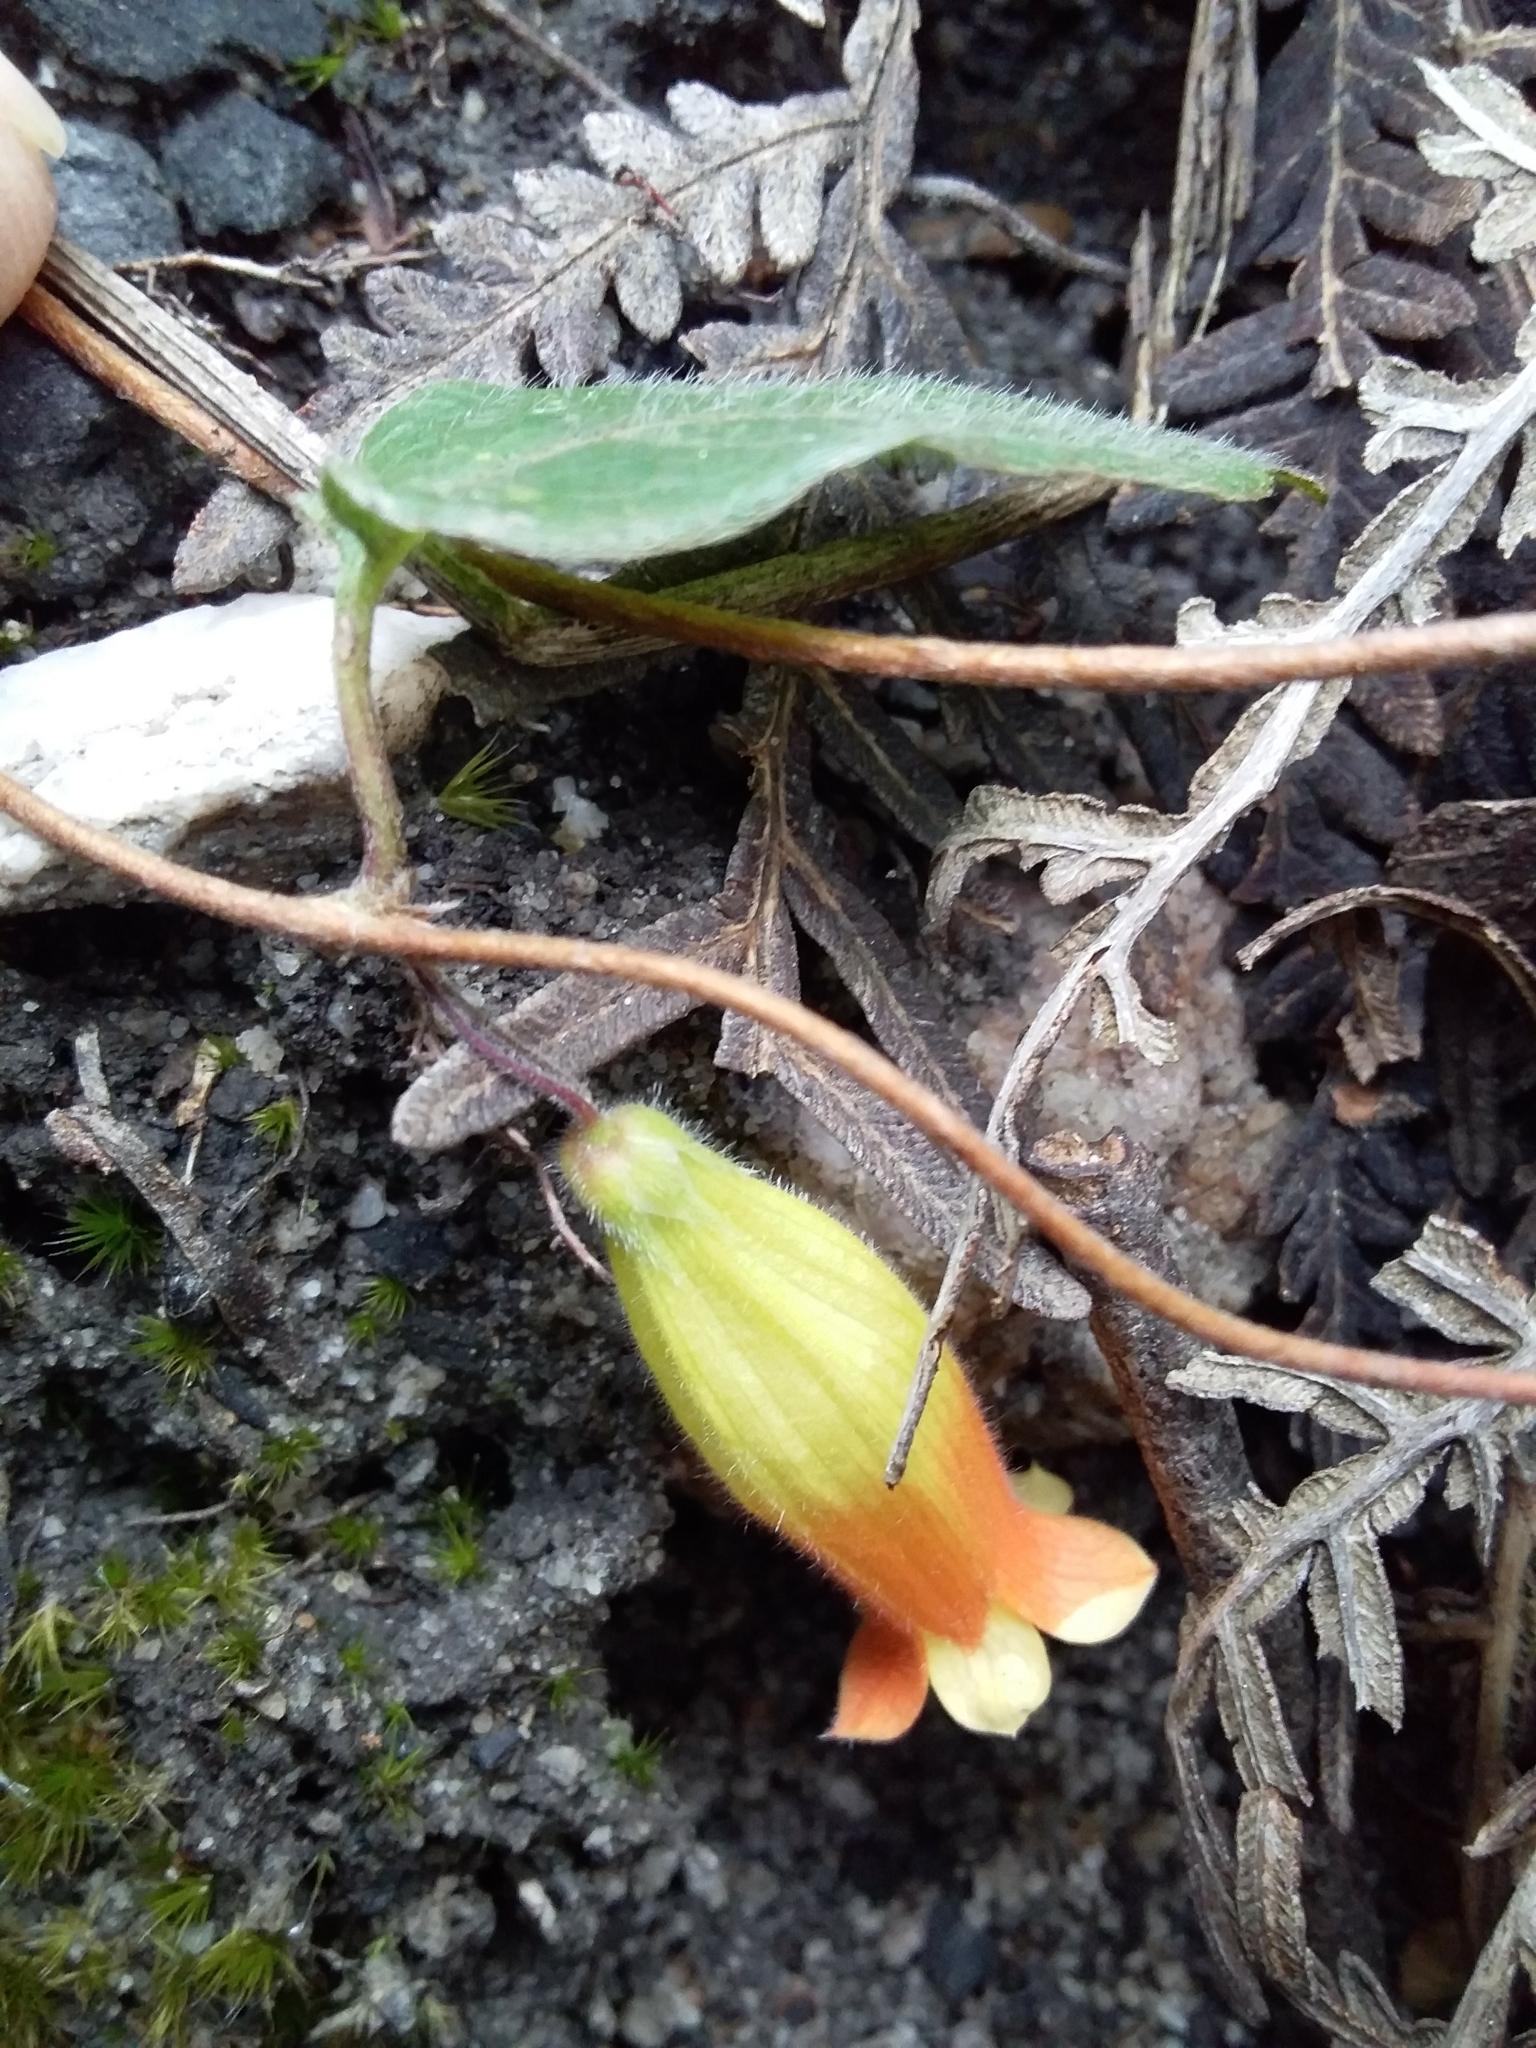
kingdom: Plantae
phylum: Tracheophyta
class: Magnoliopsida
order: Apiales
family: Pittosporaceae
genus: Marianthus
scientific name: Marianthus bignoniaceus
